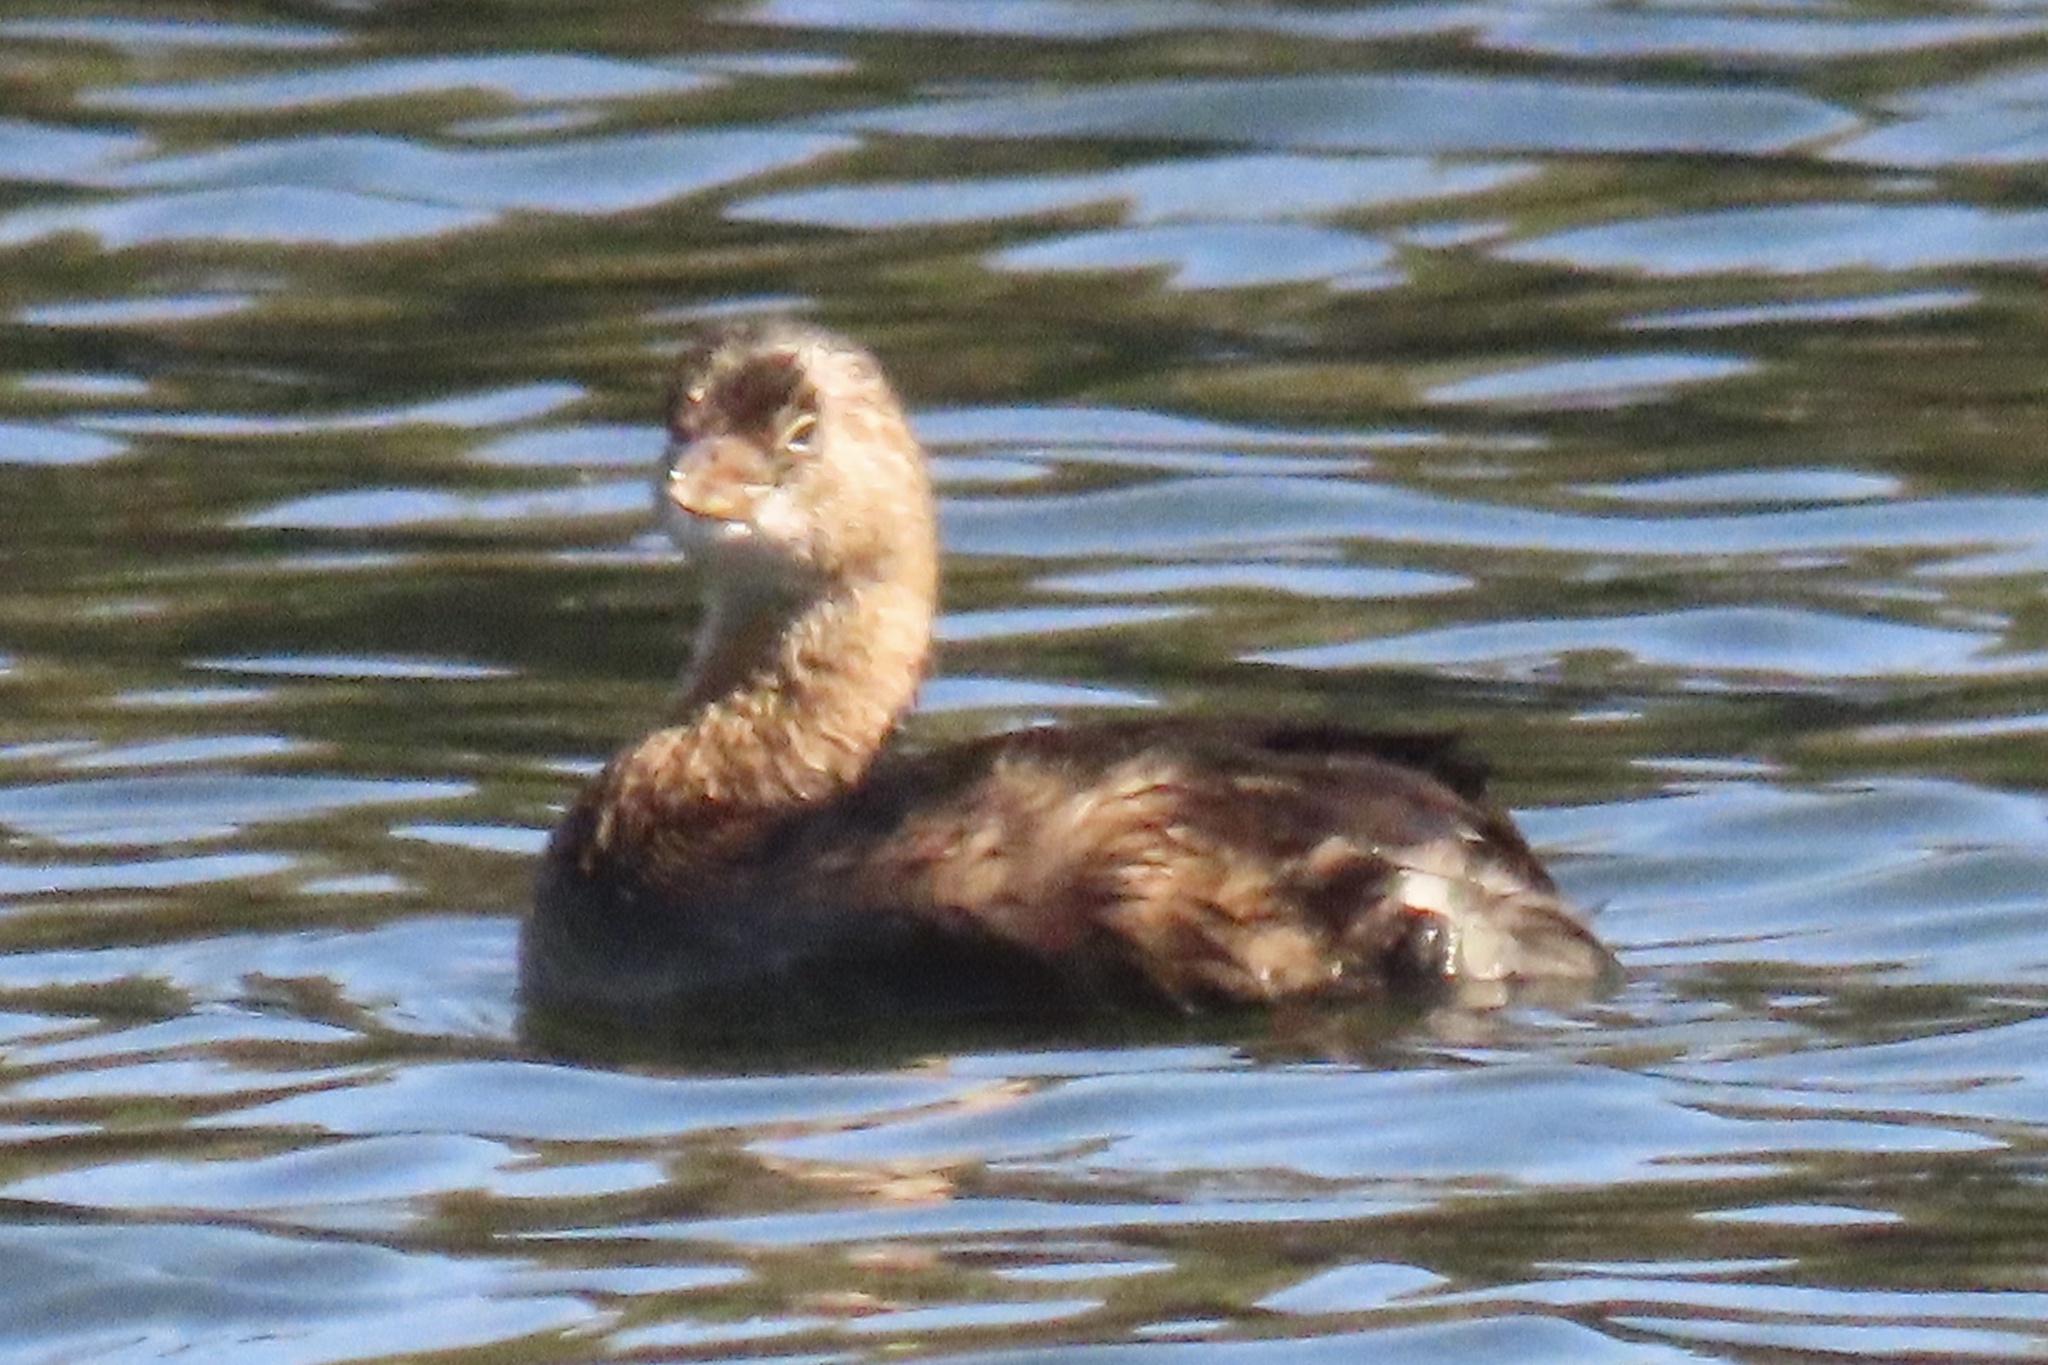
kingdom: Animalia
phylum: Chordata
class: Aves
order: Podicipediformes
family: Podicipedidae
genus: Podilymbus
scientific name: Podilymbus podiceps
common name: Pied-billed grebe
